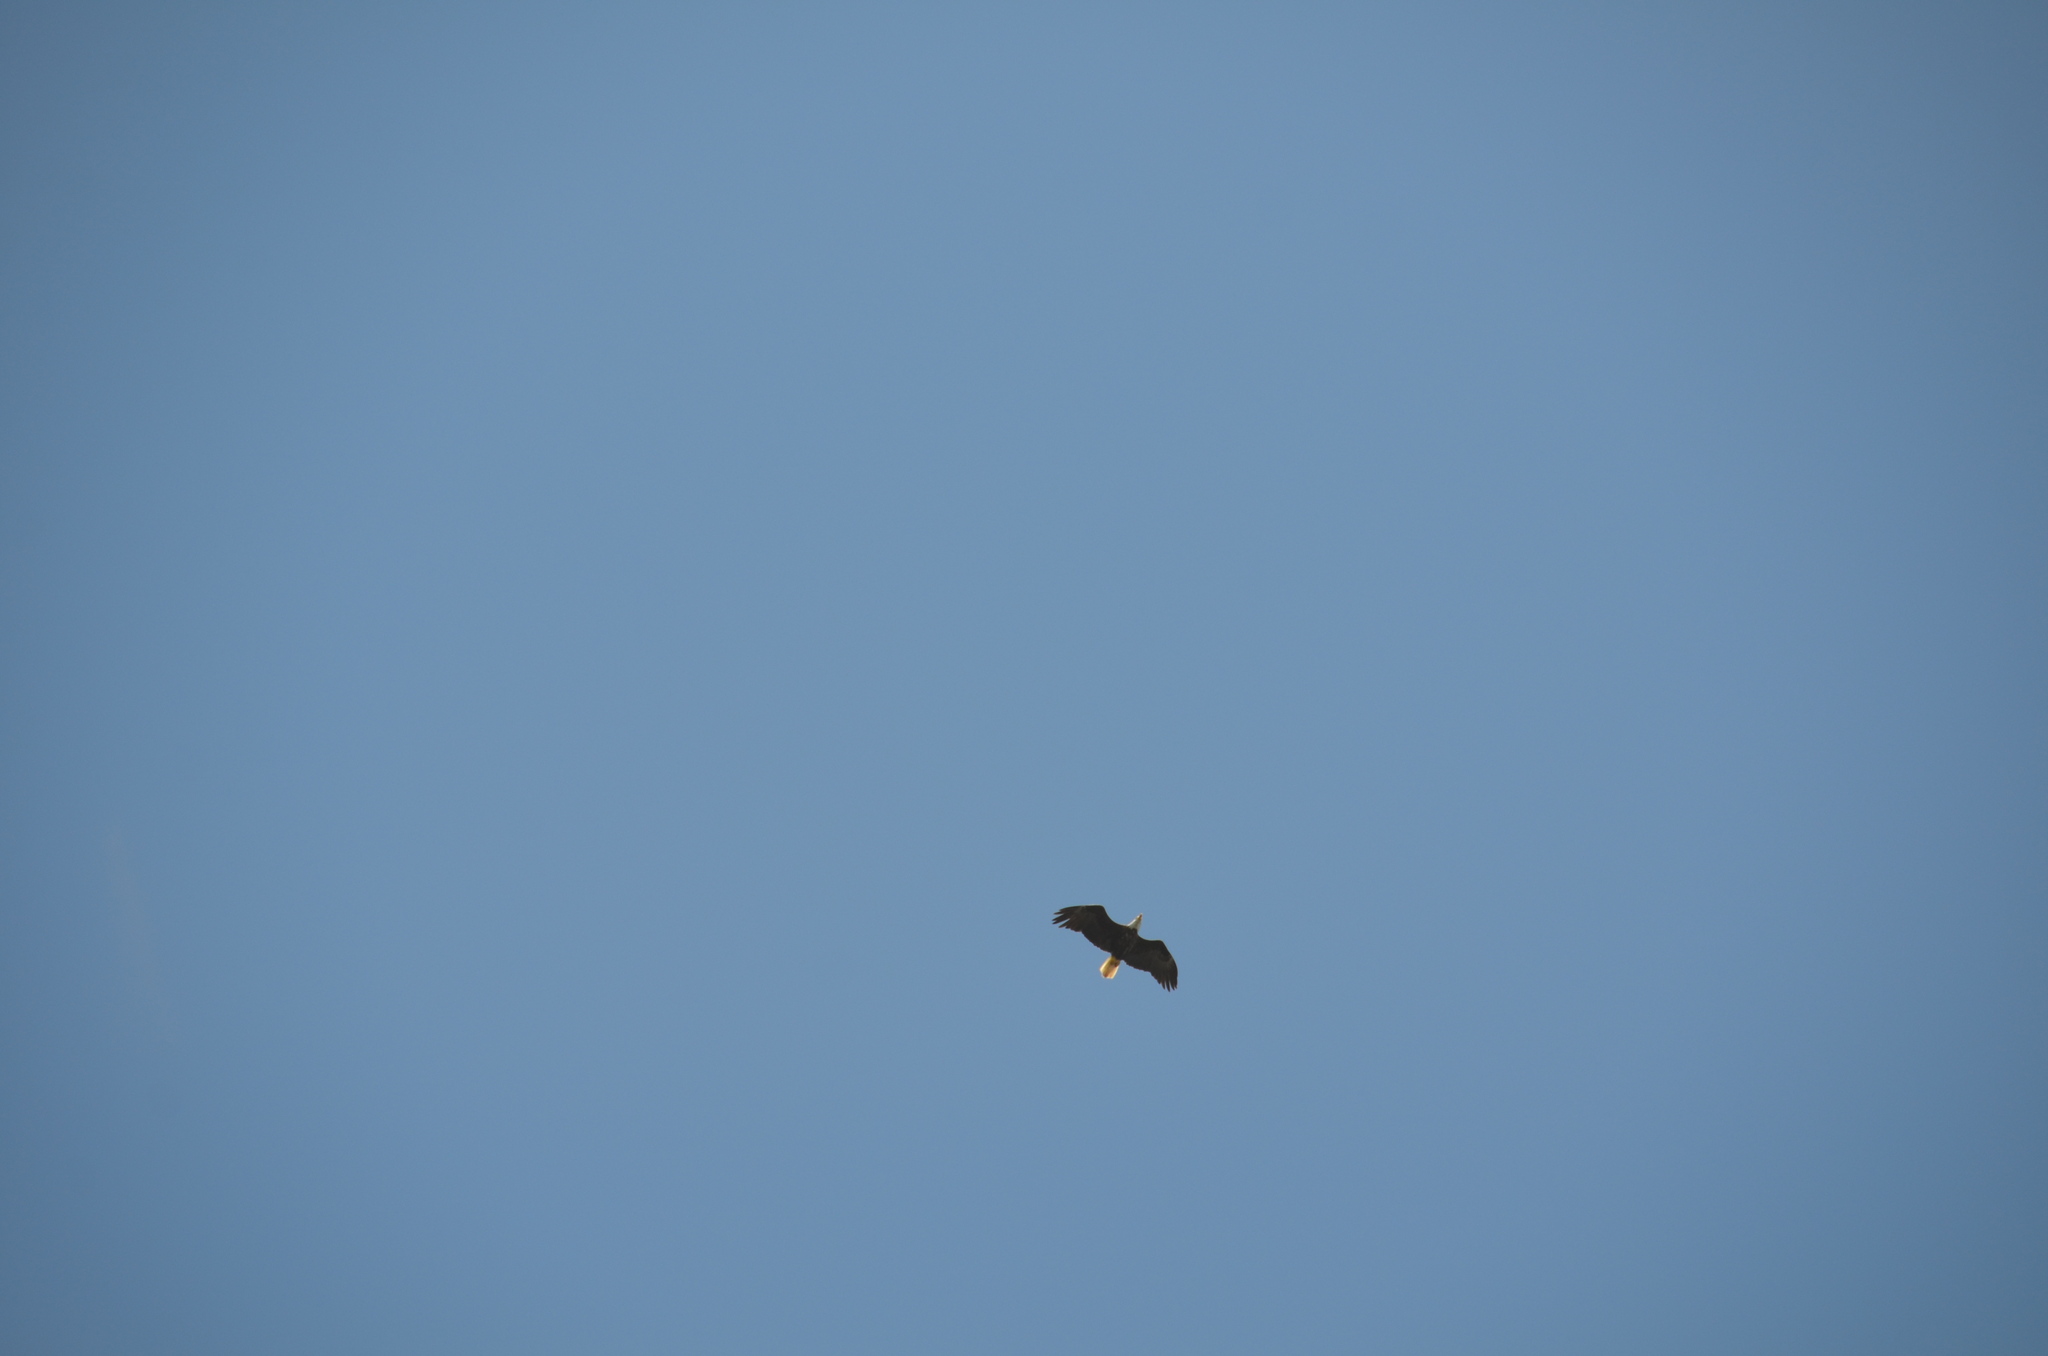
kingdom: Animalia
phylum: Chordata
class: Aves
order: Accipitriformes
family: Accipitridae
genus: Haliaeetus
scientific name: Haliaeetus leucocephalus
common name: Bald eagle
